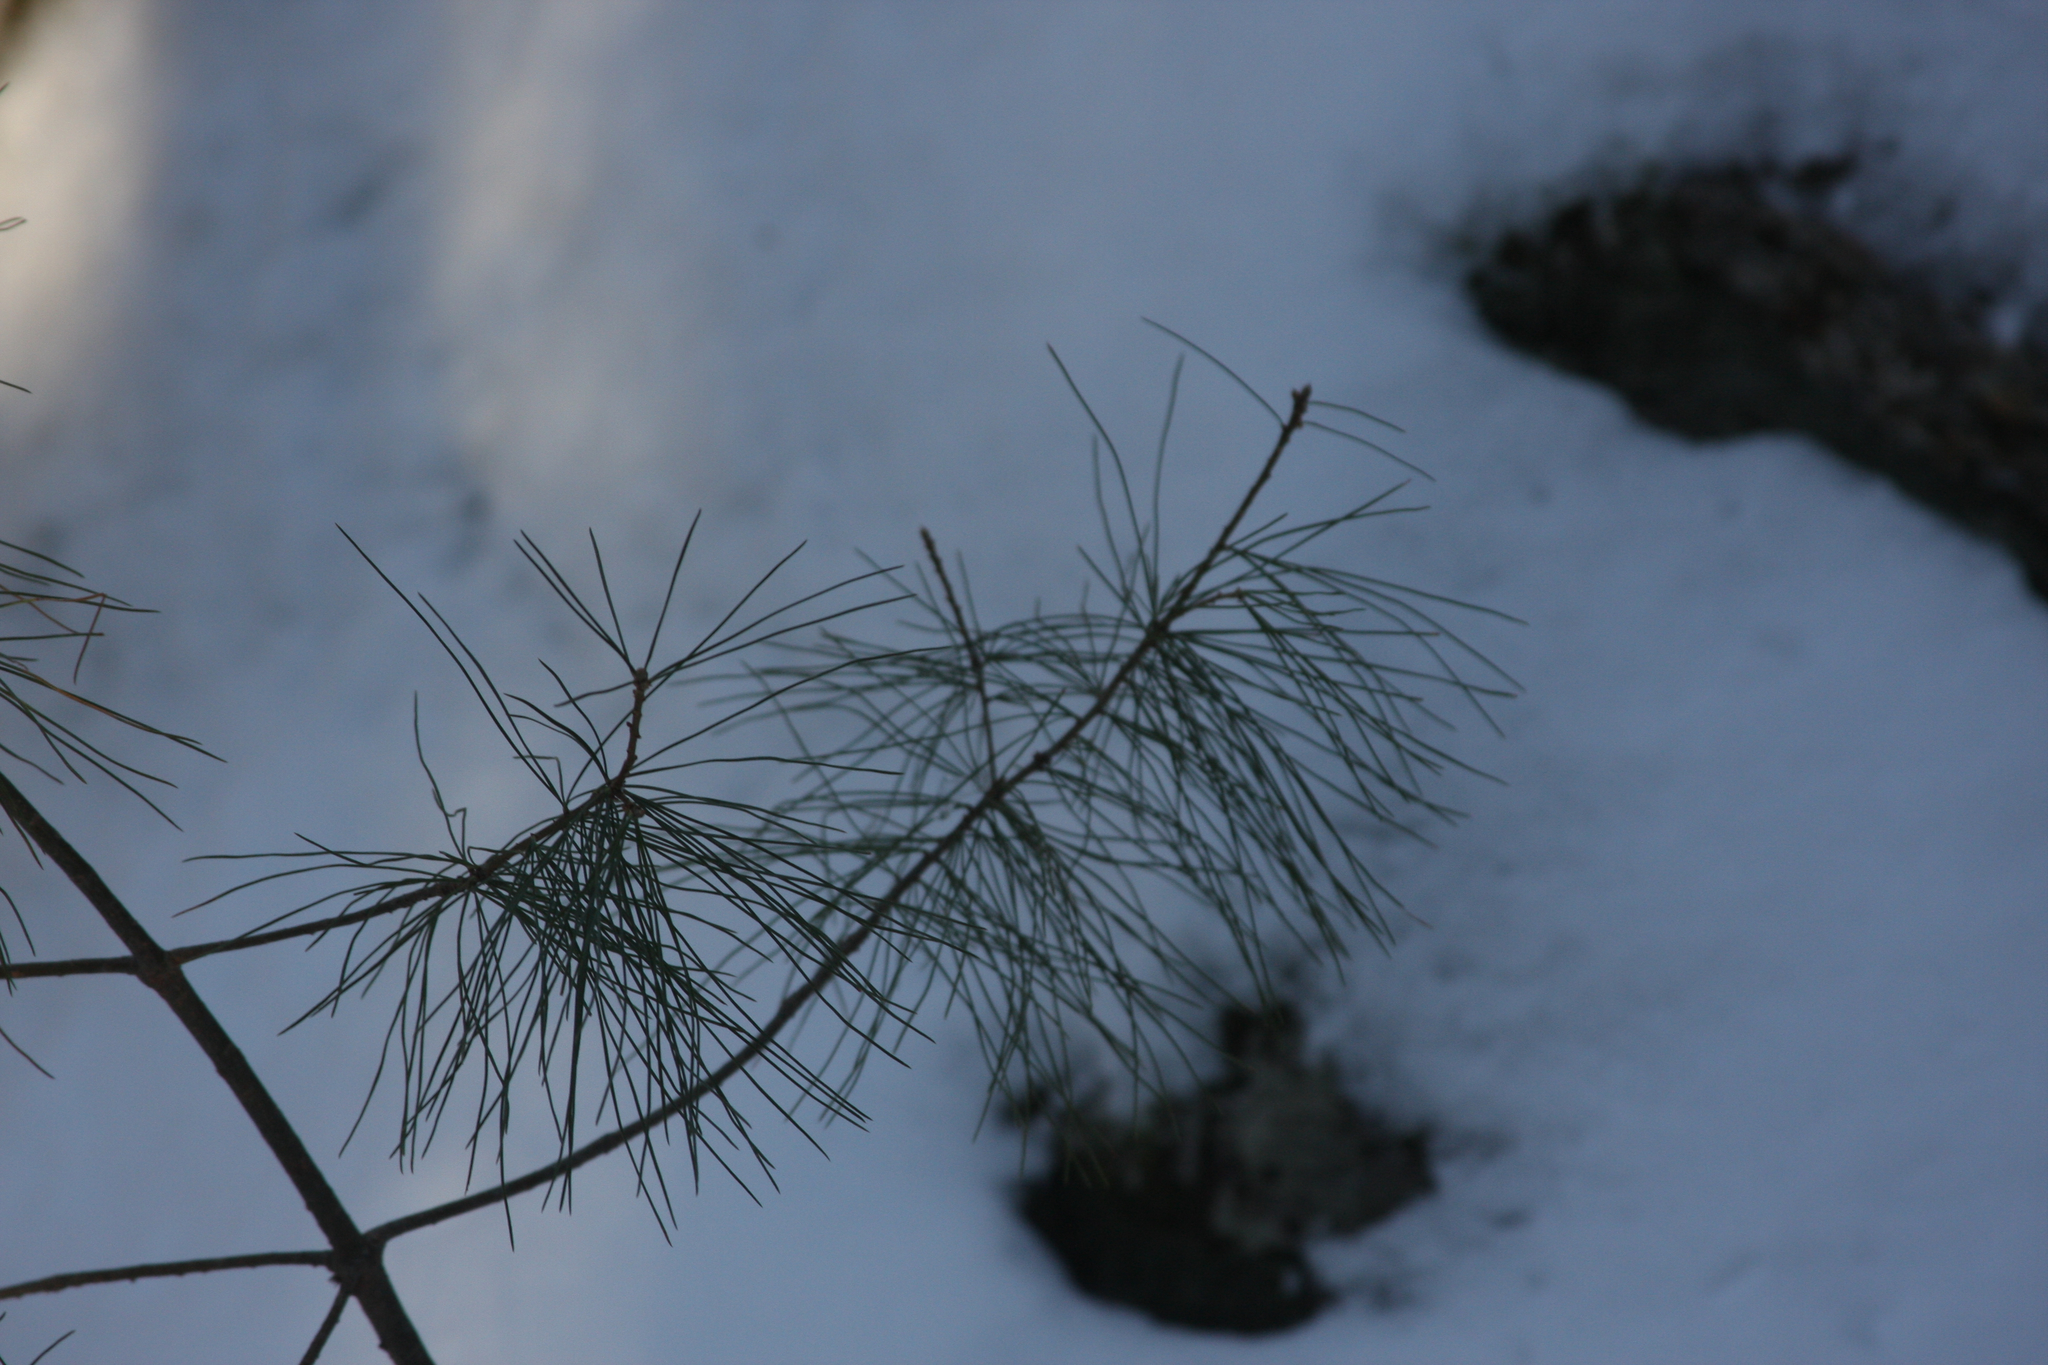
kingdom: Plantae
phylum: Tracheophyta
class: Pinopsida
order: Pinales
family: Pinaceae
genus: Pinus
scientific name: Pinus strobus
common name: Weymouth pine
